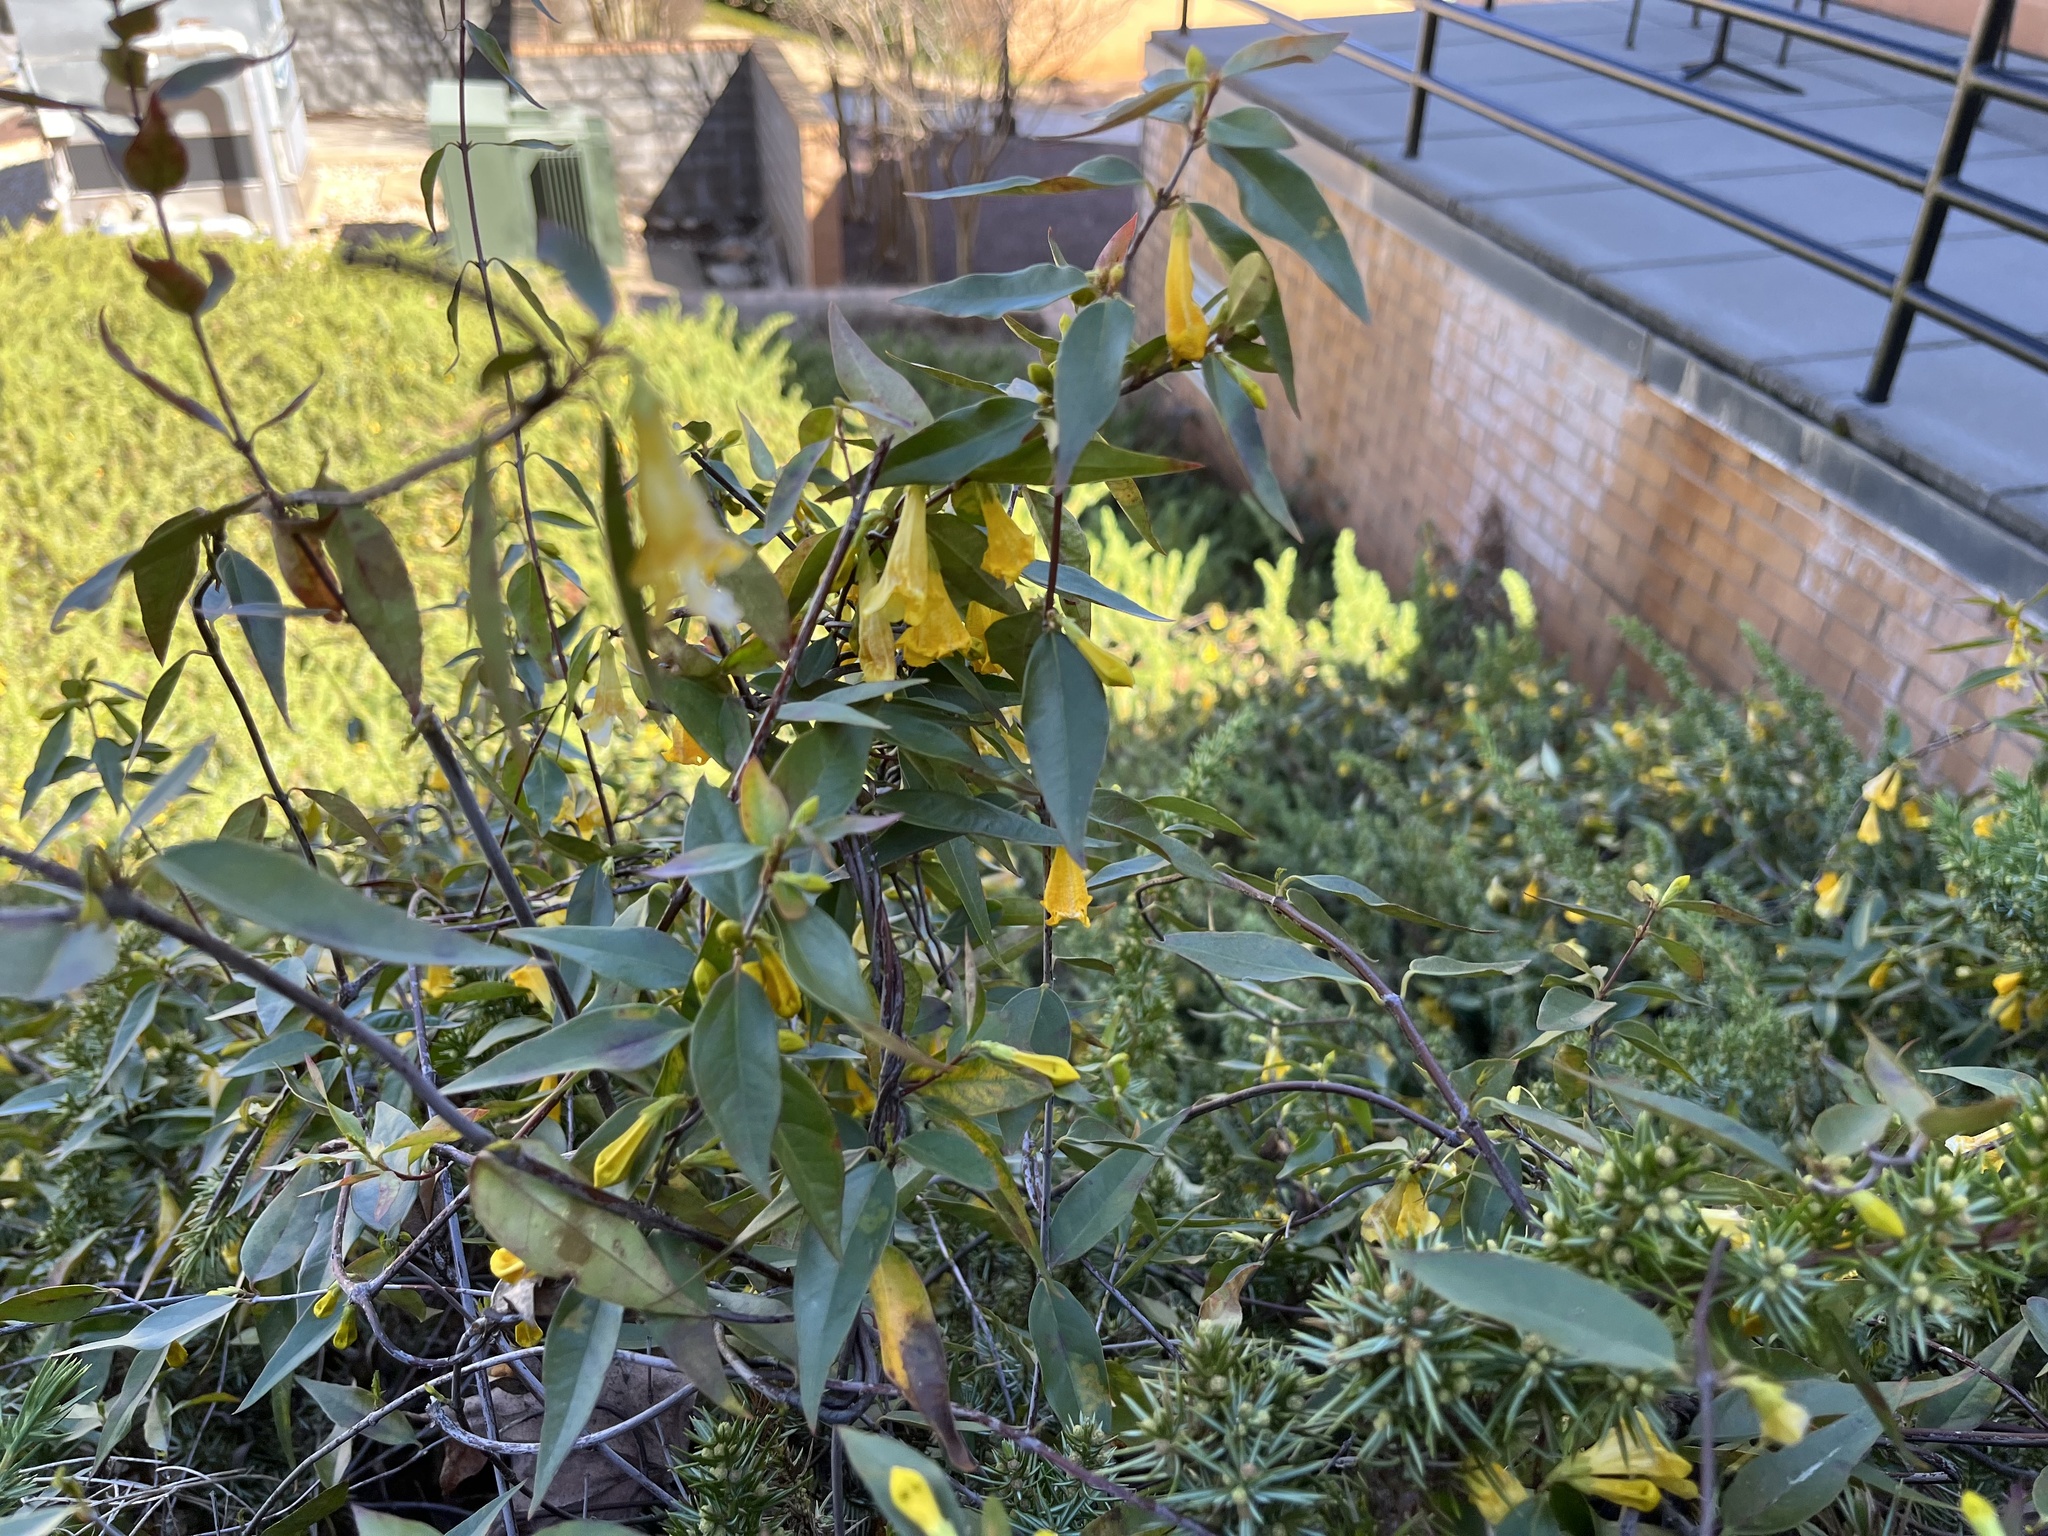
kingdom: Plantae
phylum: Tracheophyta
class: Magnoliopsida
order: Gentianales
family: Gelsemiaceae
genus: Gelsemium
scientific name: Gelsemium sempervirens
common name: Carolina-jasmine
